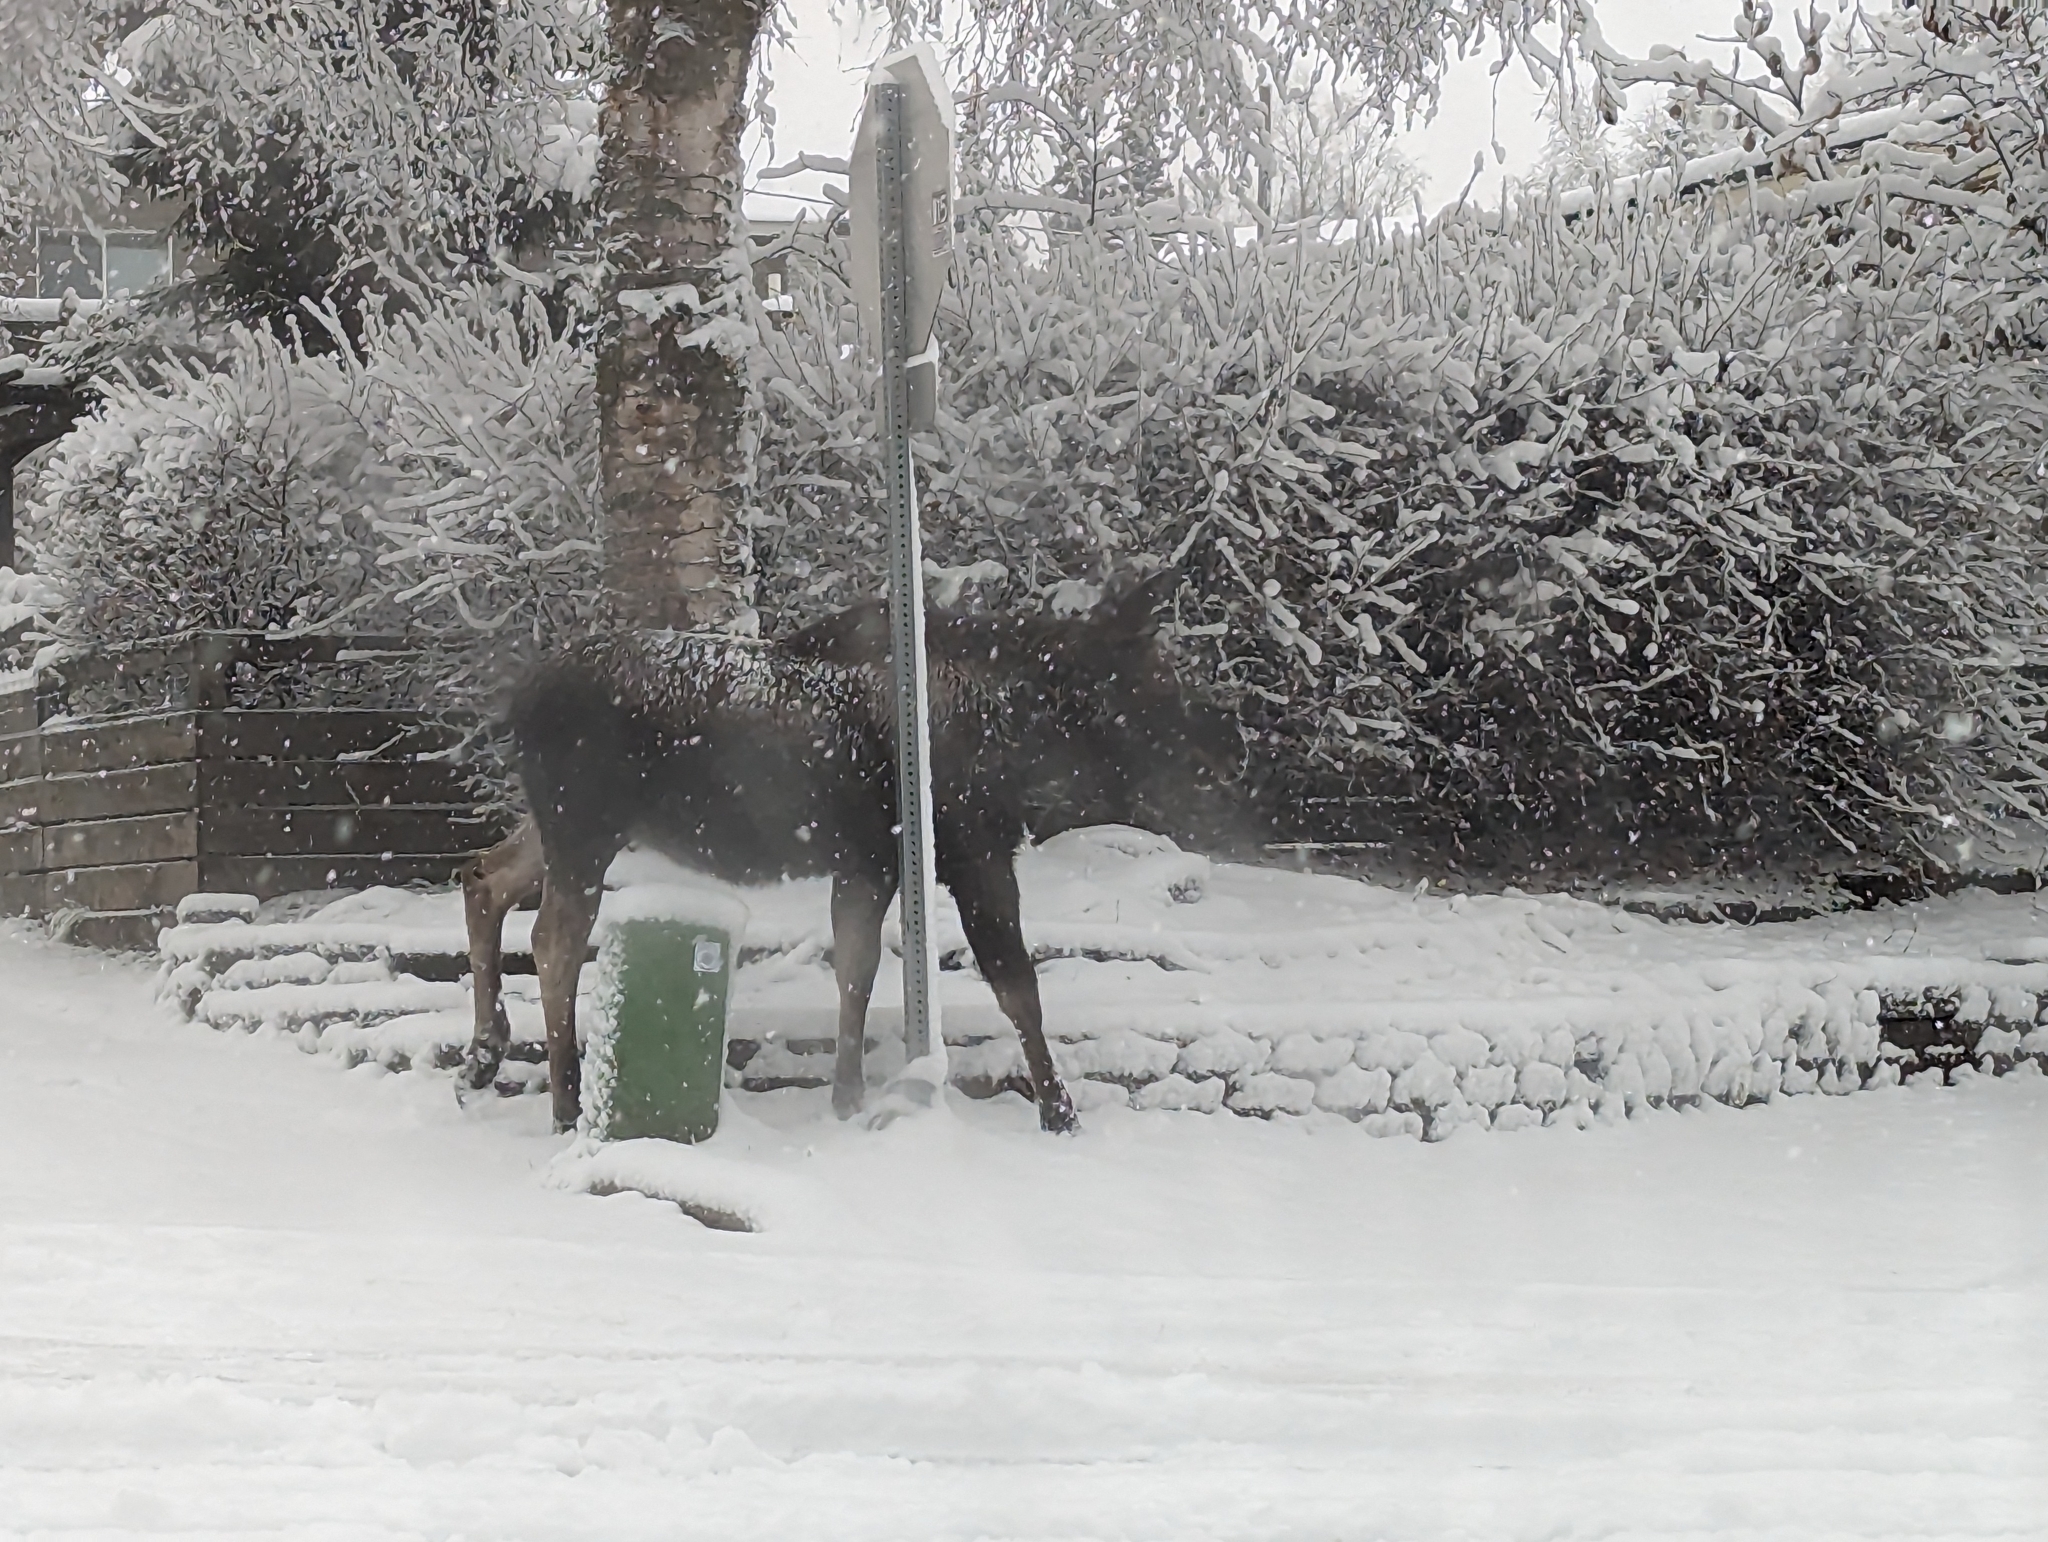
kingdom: Animalia
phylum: Chordata
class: Mammalia
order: Artiodactyla
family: Cervidae
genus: Alces
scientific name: Alces alces
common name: Moose
